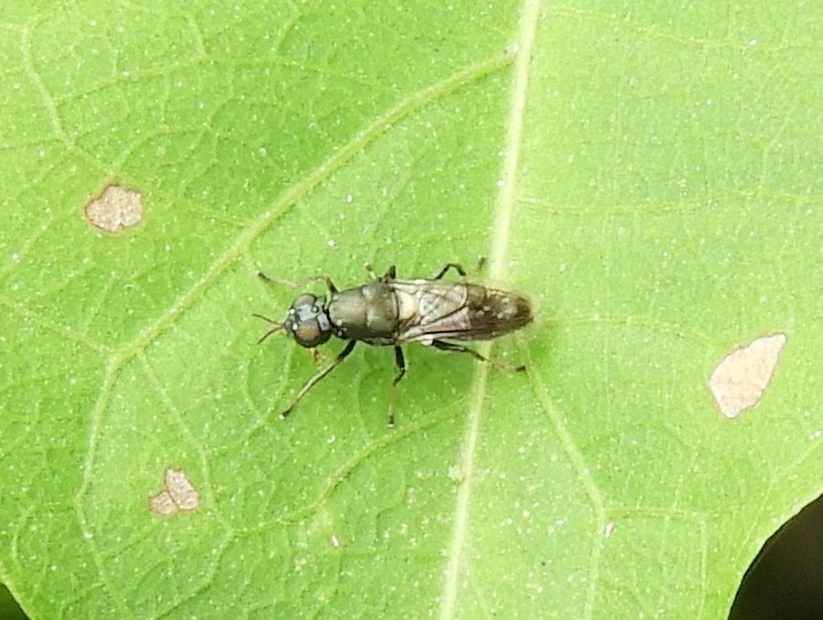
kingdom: Animalia
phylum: Arthropoda
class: Insecta
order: Diptera
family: Stratiomyidae
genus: Myxosargus
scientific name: Myxosargus
